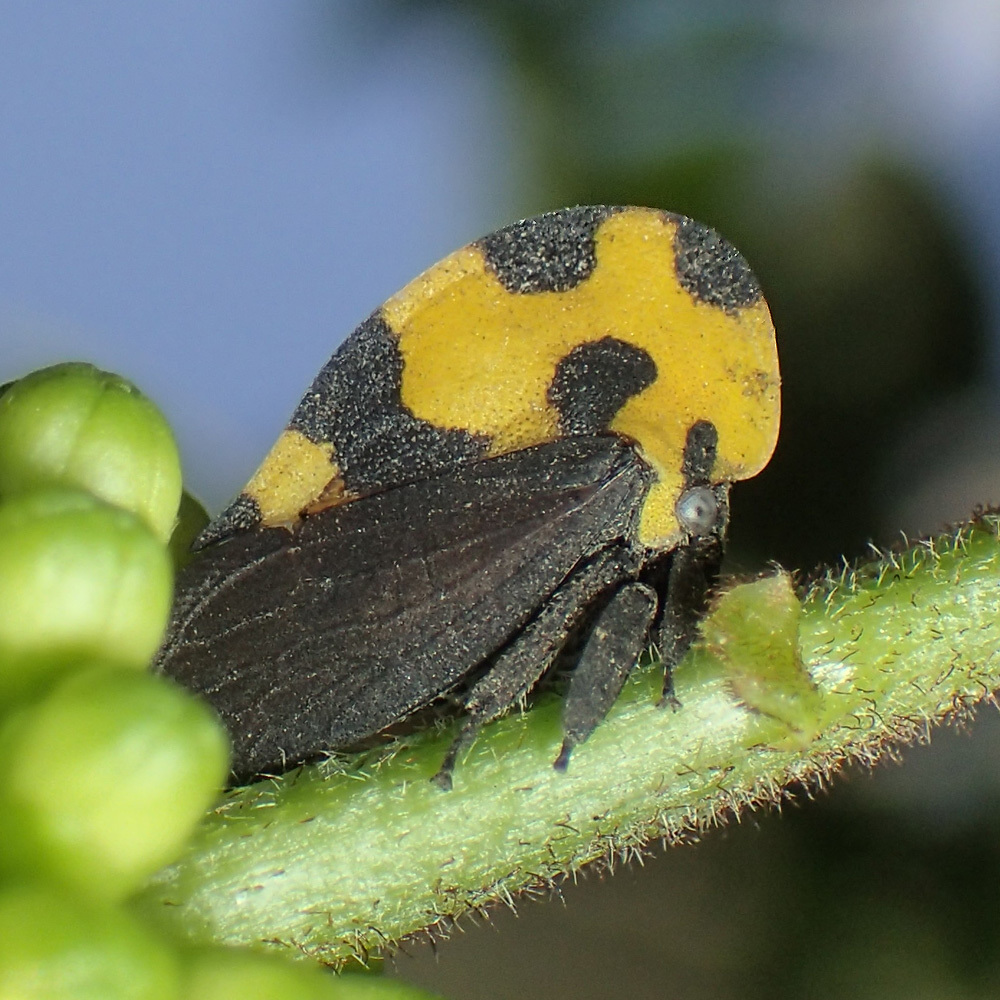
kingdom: Animalia
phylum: Arthropoda
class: Insecta
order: Hemiptera
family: Membracidae
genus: Membracis
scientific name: Membracis mexicana
